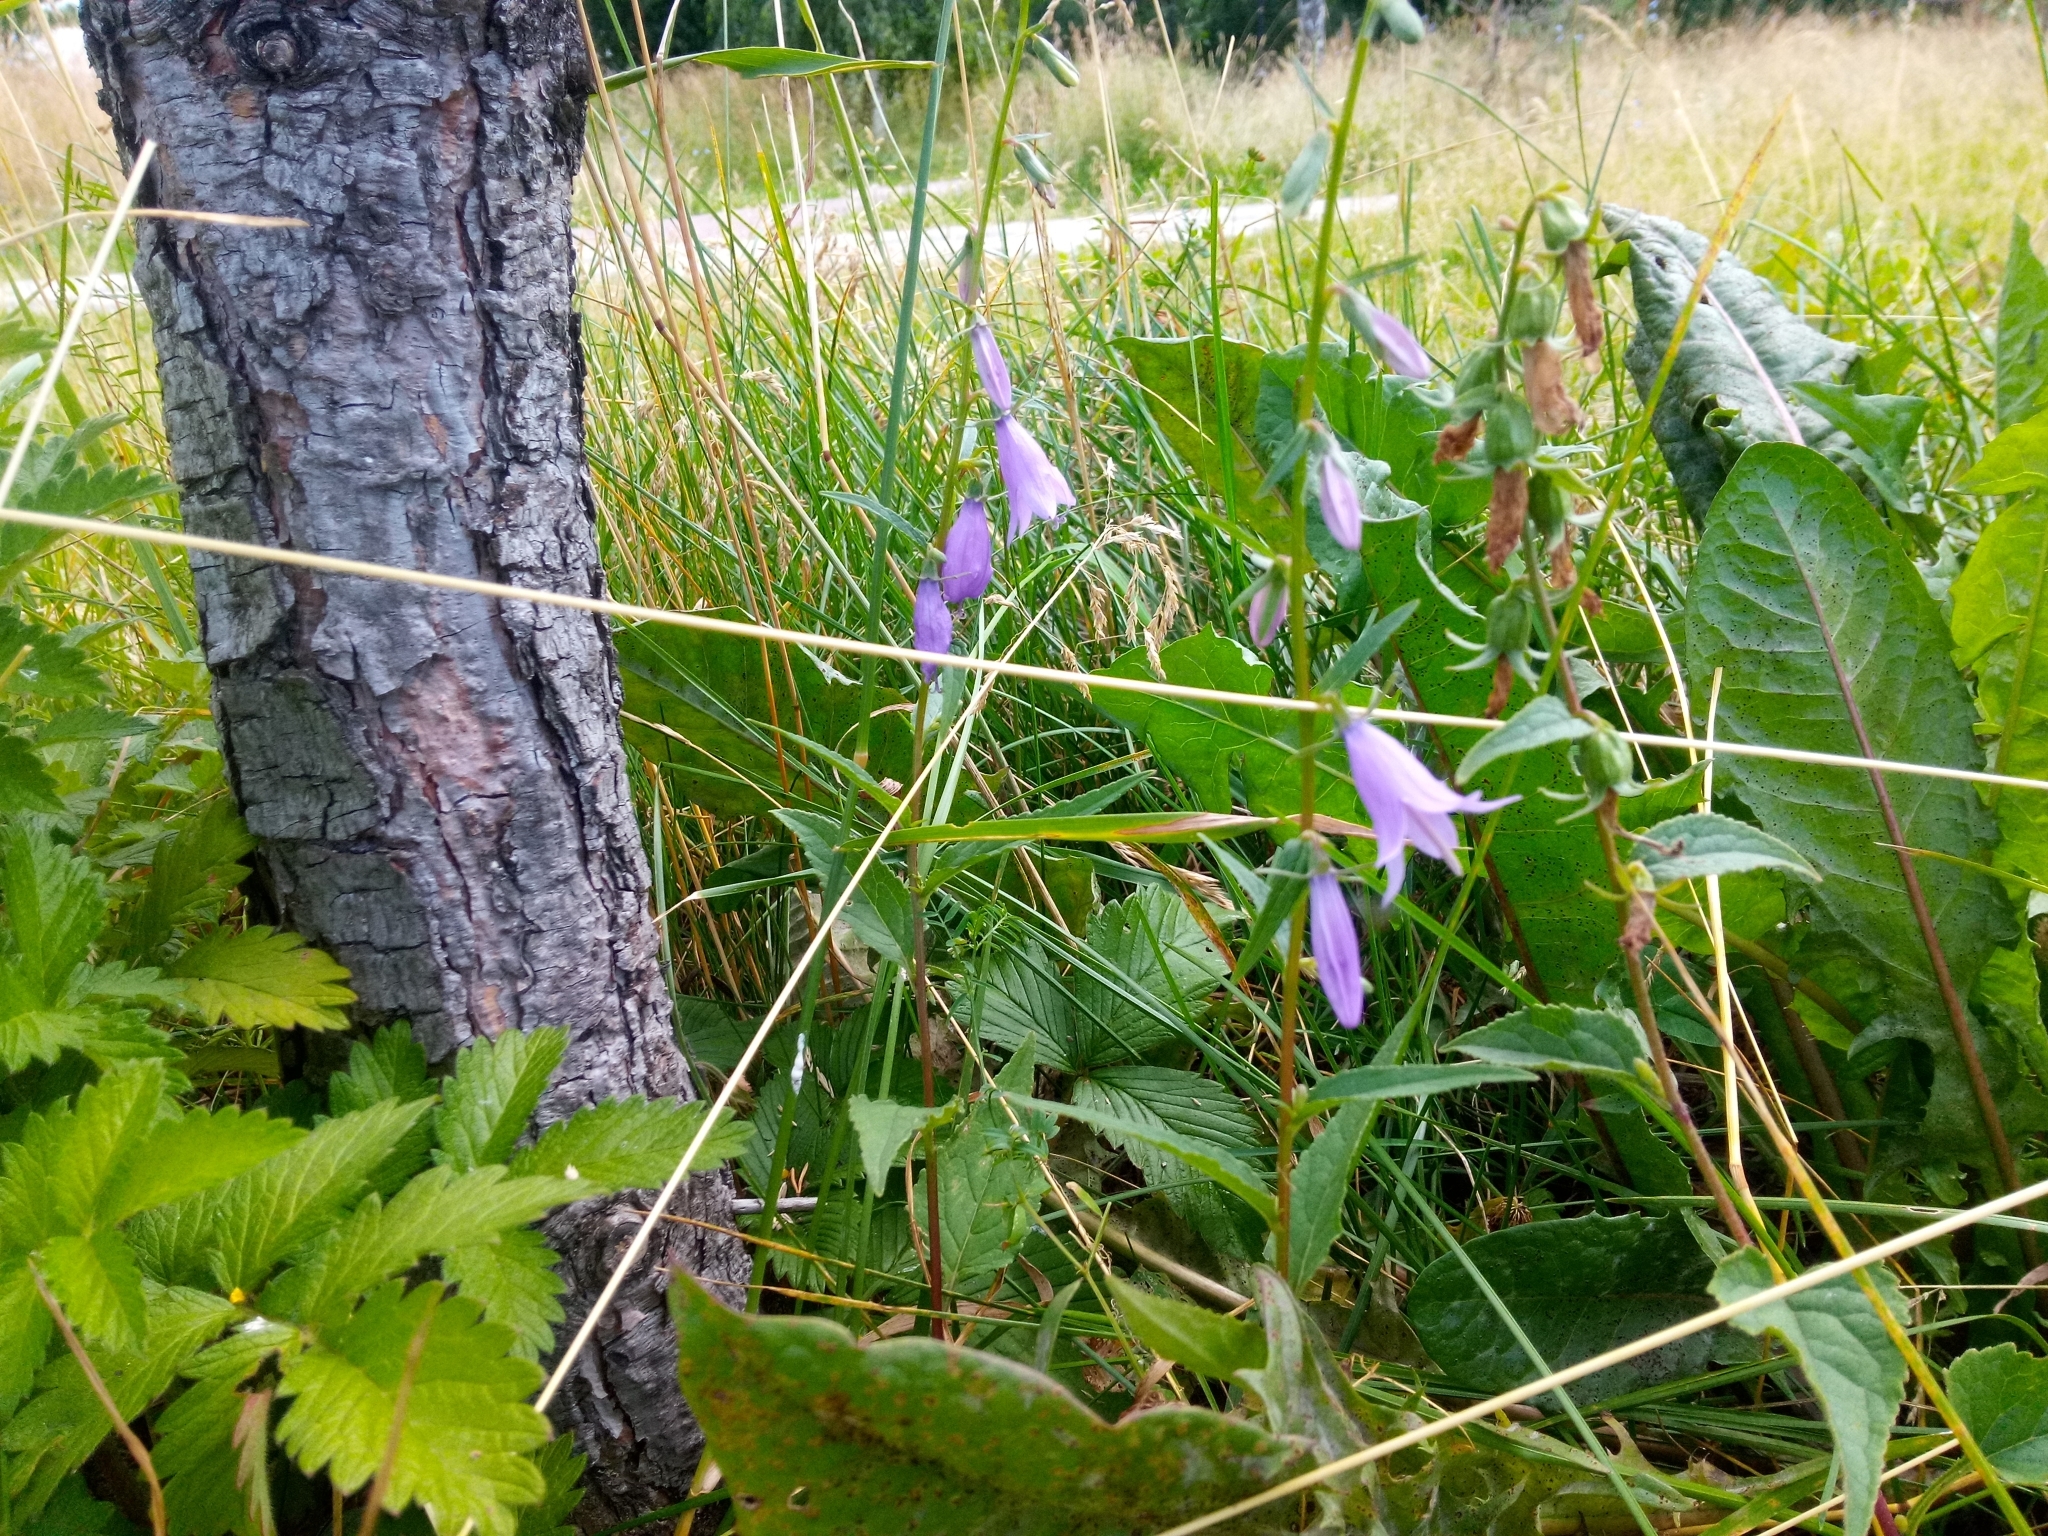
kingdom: Plantae
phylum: Tracheophyta
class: Magnoliopsida
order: Asterales
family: Campanulaceae
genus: Campanula
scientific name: Campanula rapunculoides
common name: Creeping bellflower
